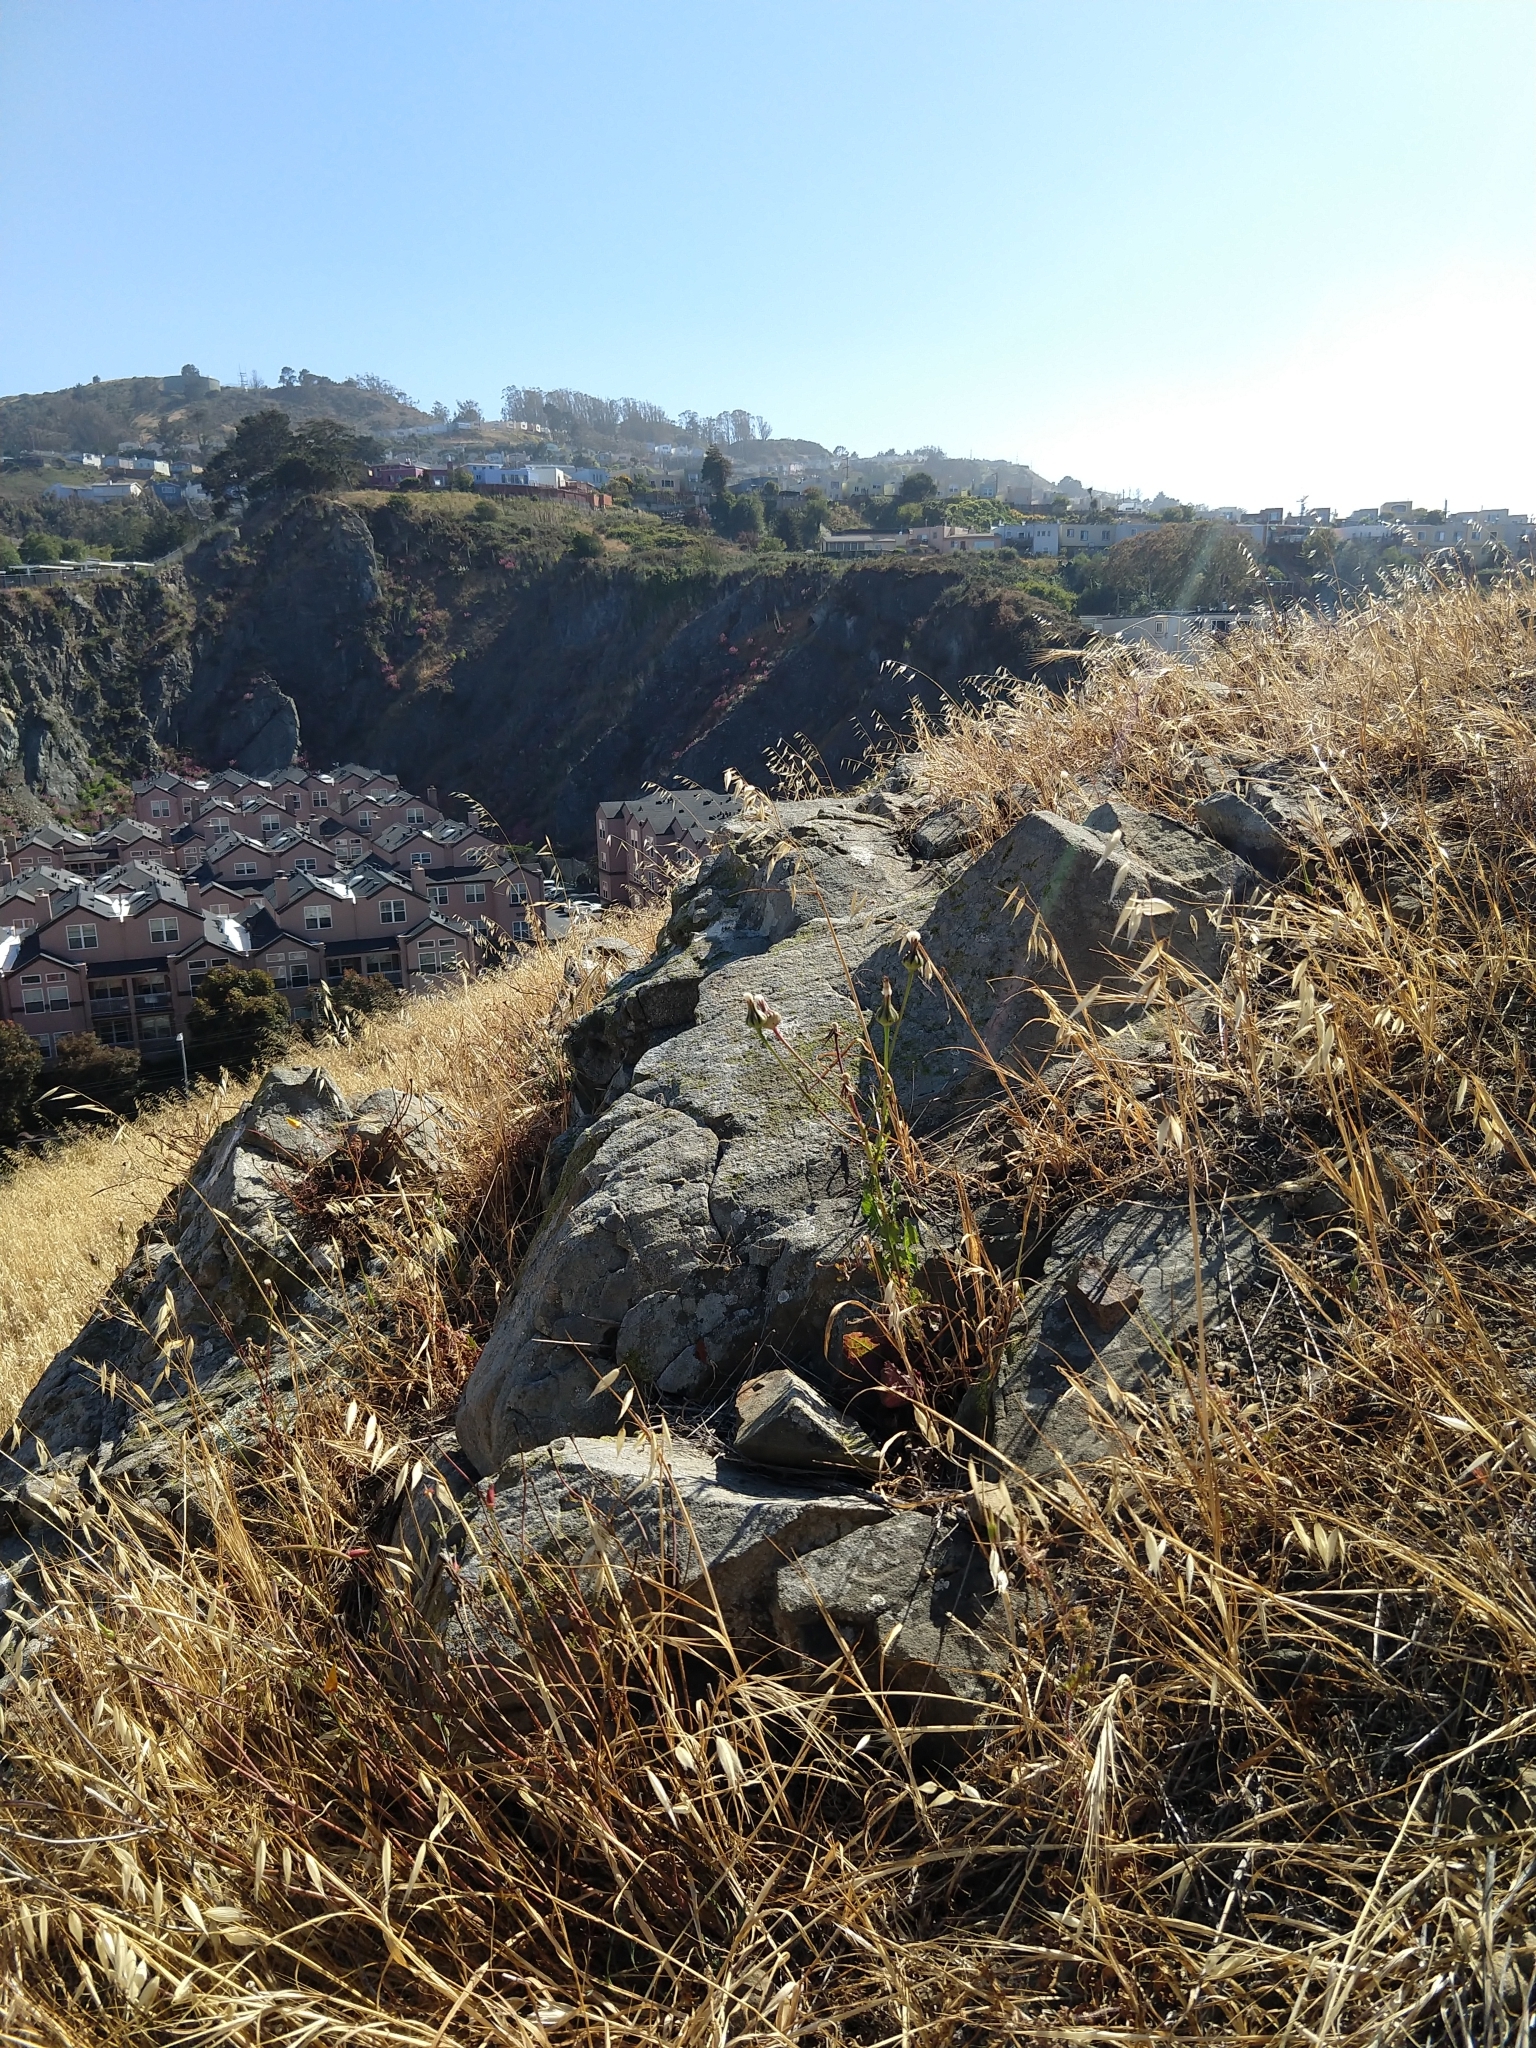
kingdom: Plantae
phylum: Tracheophyta
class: Magnoliopsida
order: Asterales
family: Asteraceae
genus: Urospermum
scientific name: Urospermum picroides
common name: False hawkbit
